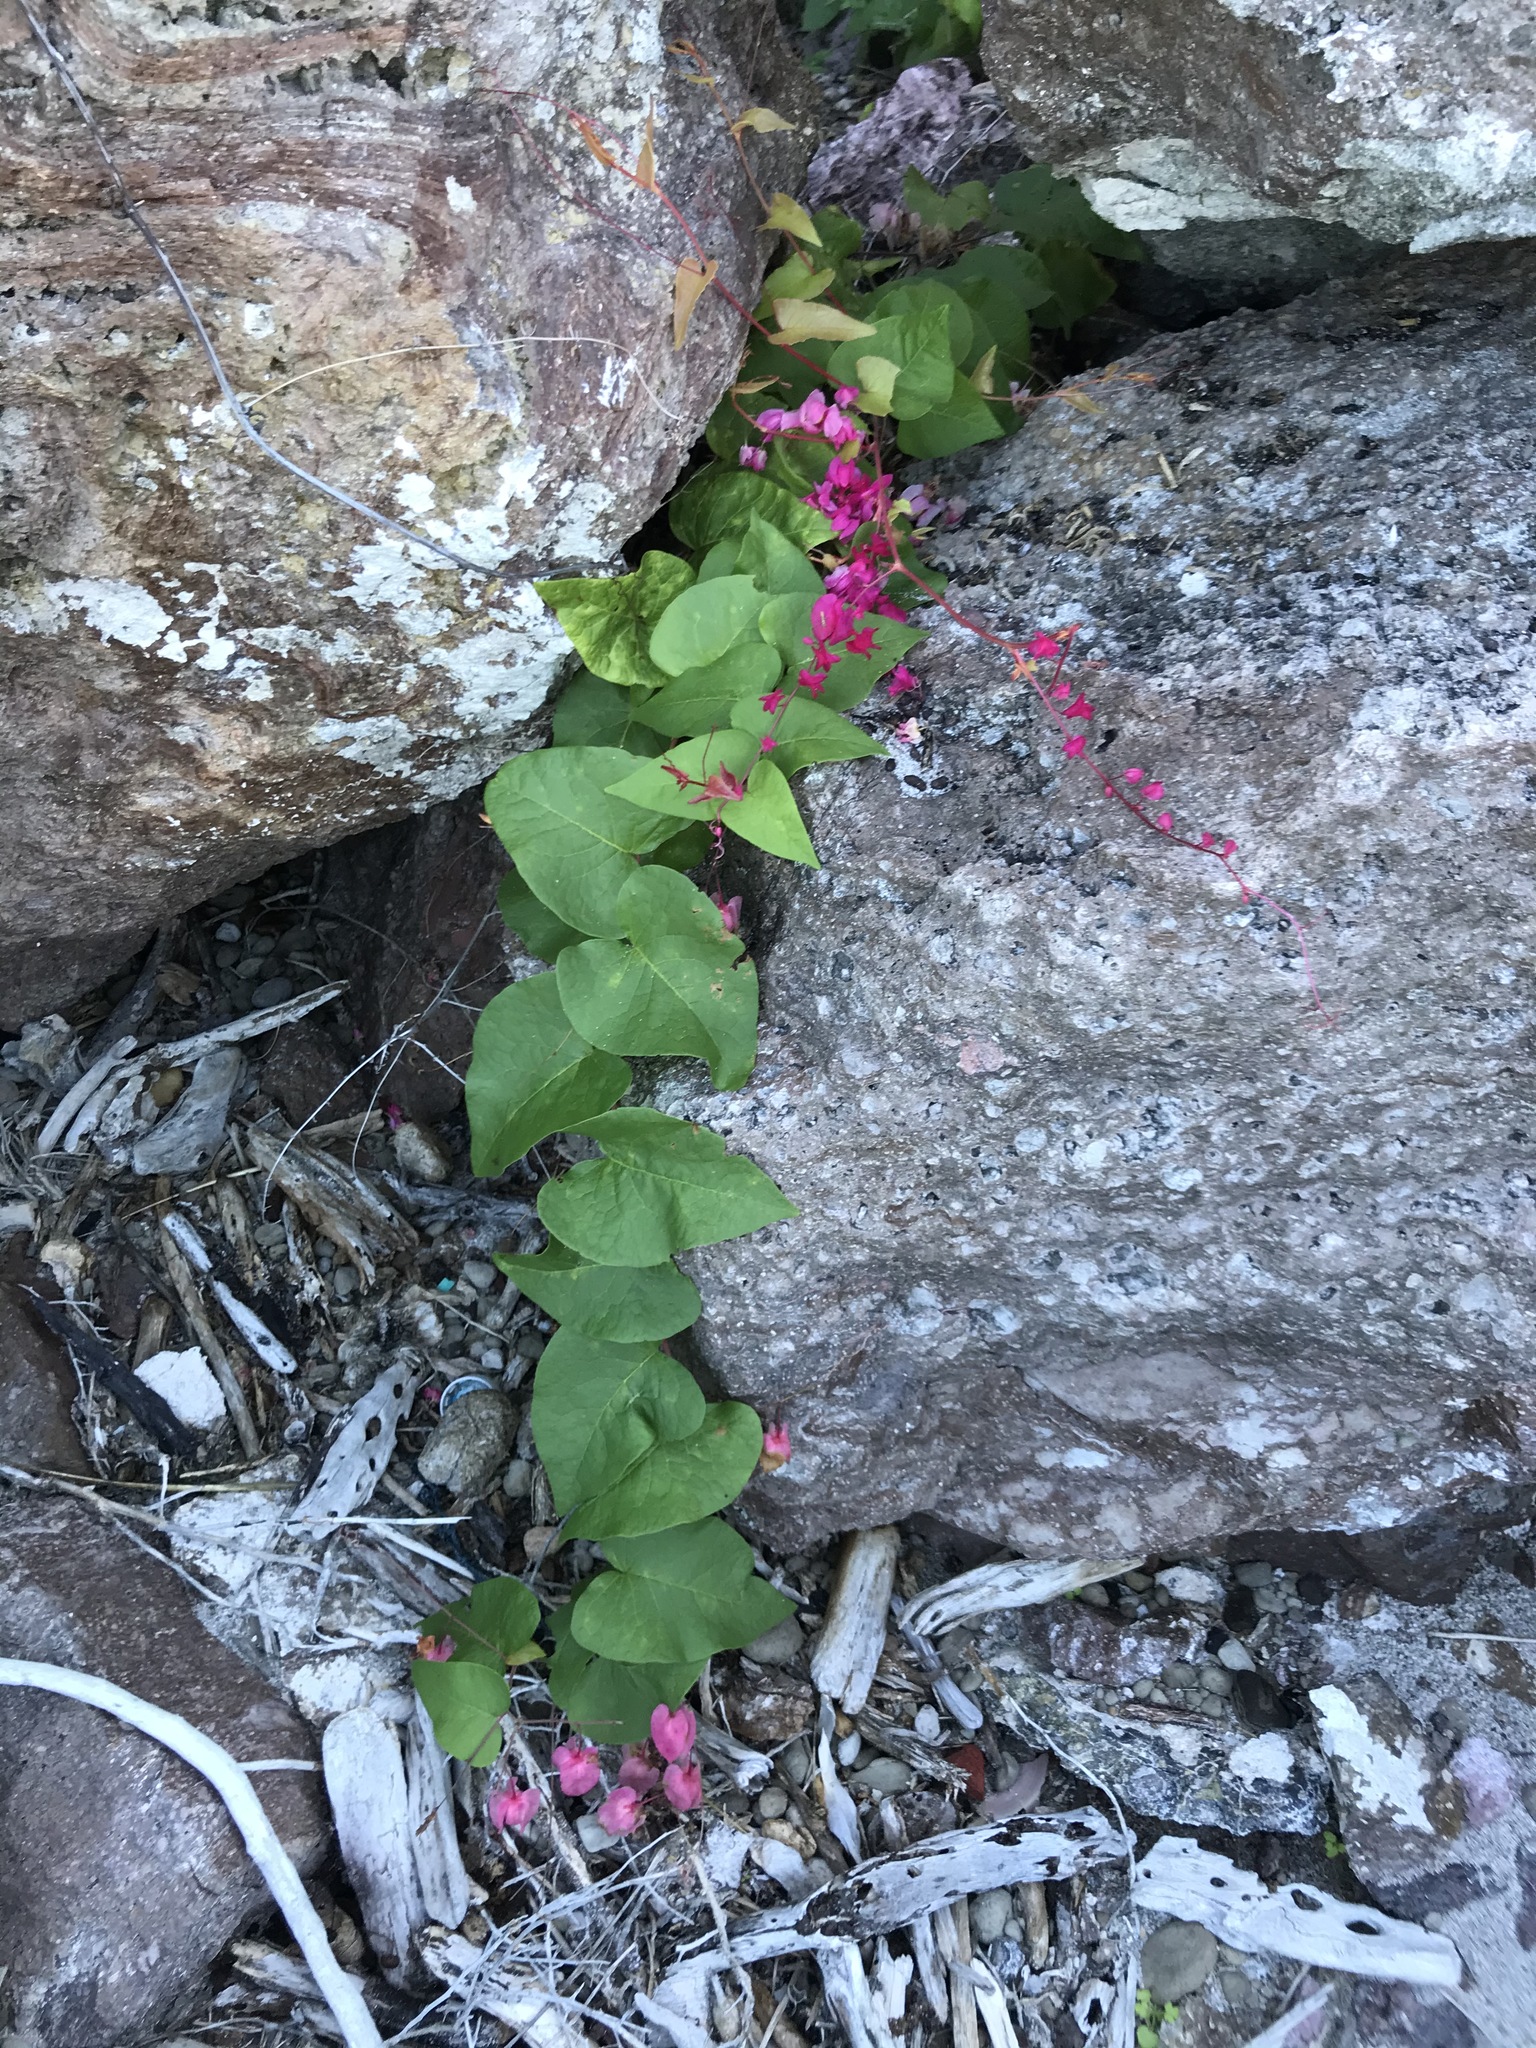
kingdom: Plantae
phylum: Tracheophyta
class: Magnoliopsida
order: Caryophyllales
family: Polygonaceae
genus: Antigonon
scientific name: Antigonon leptopus
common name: Coral vine
